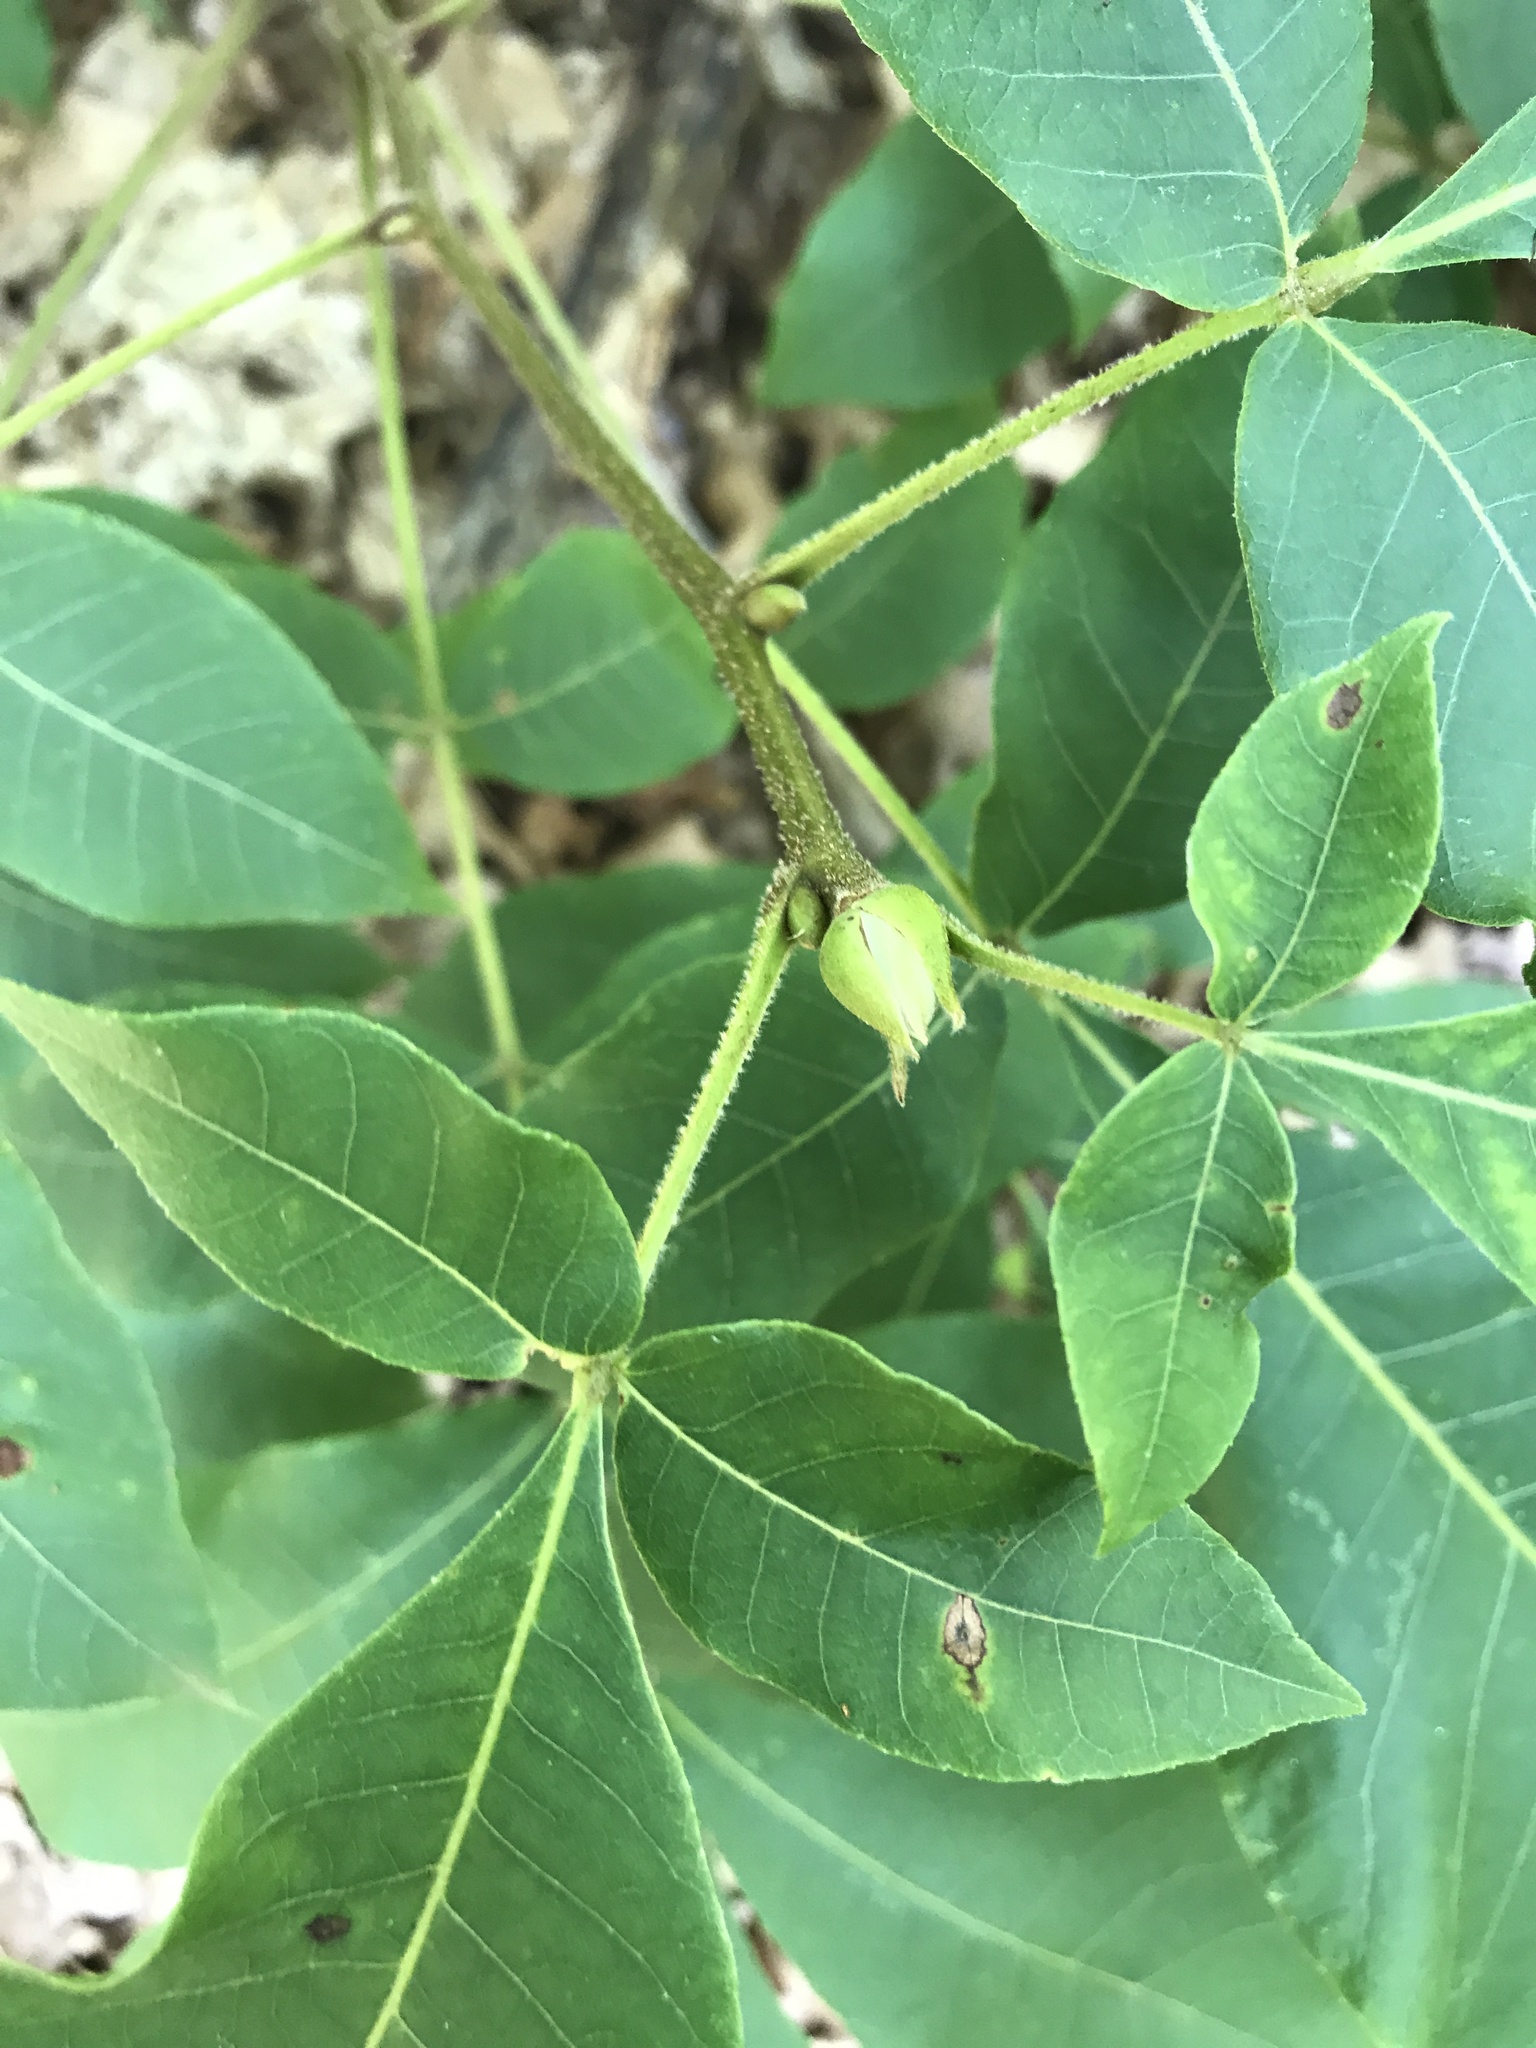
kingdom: Plantae
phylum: Tracheophyta
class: Magnoliopsida
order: Fagales
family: Juglandaceae
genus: Carya
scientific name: Carya alba
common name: Mockernut hickory
